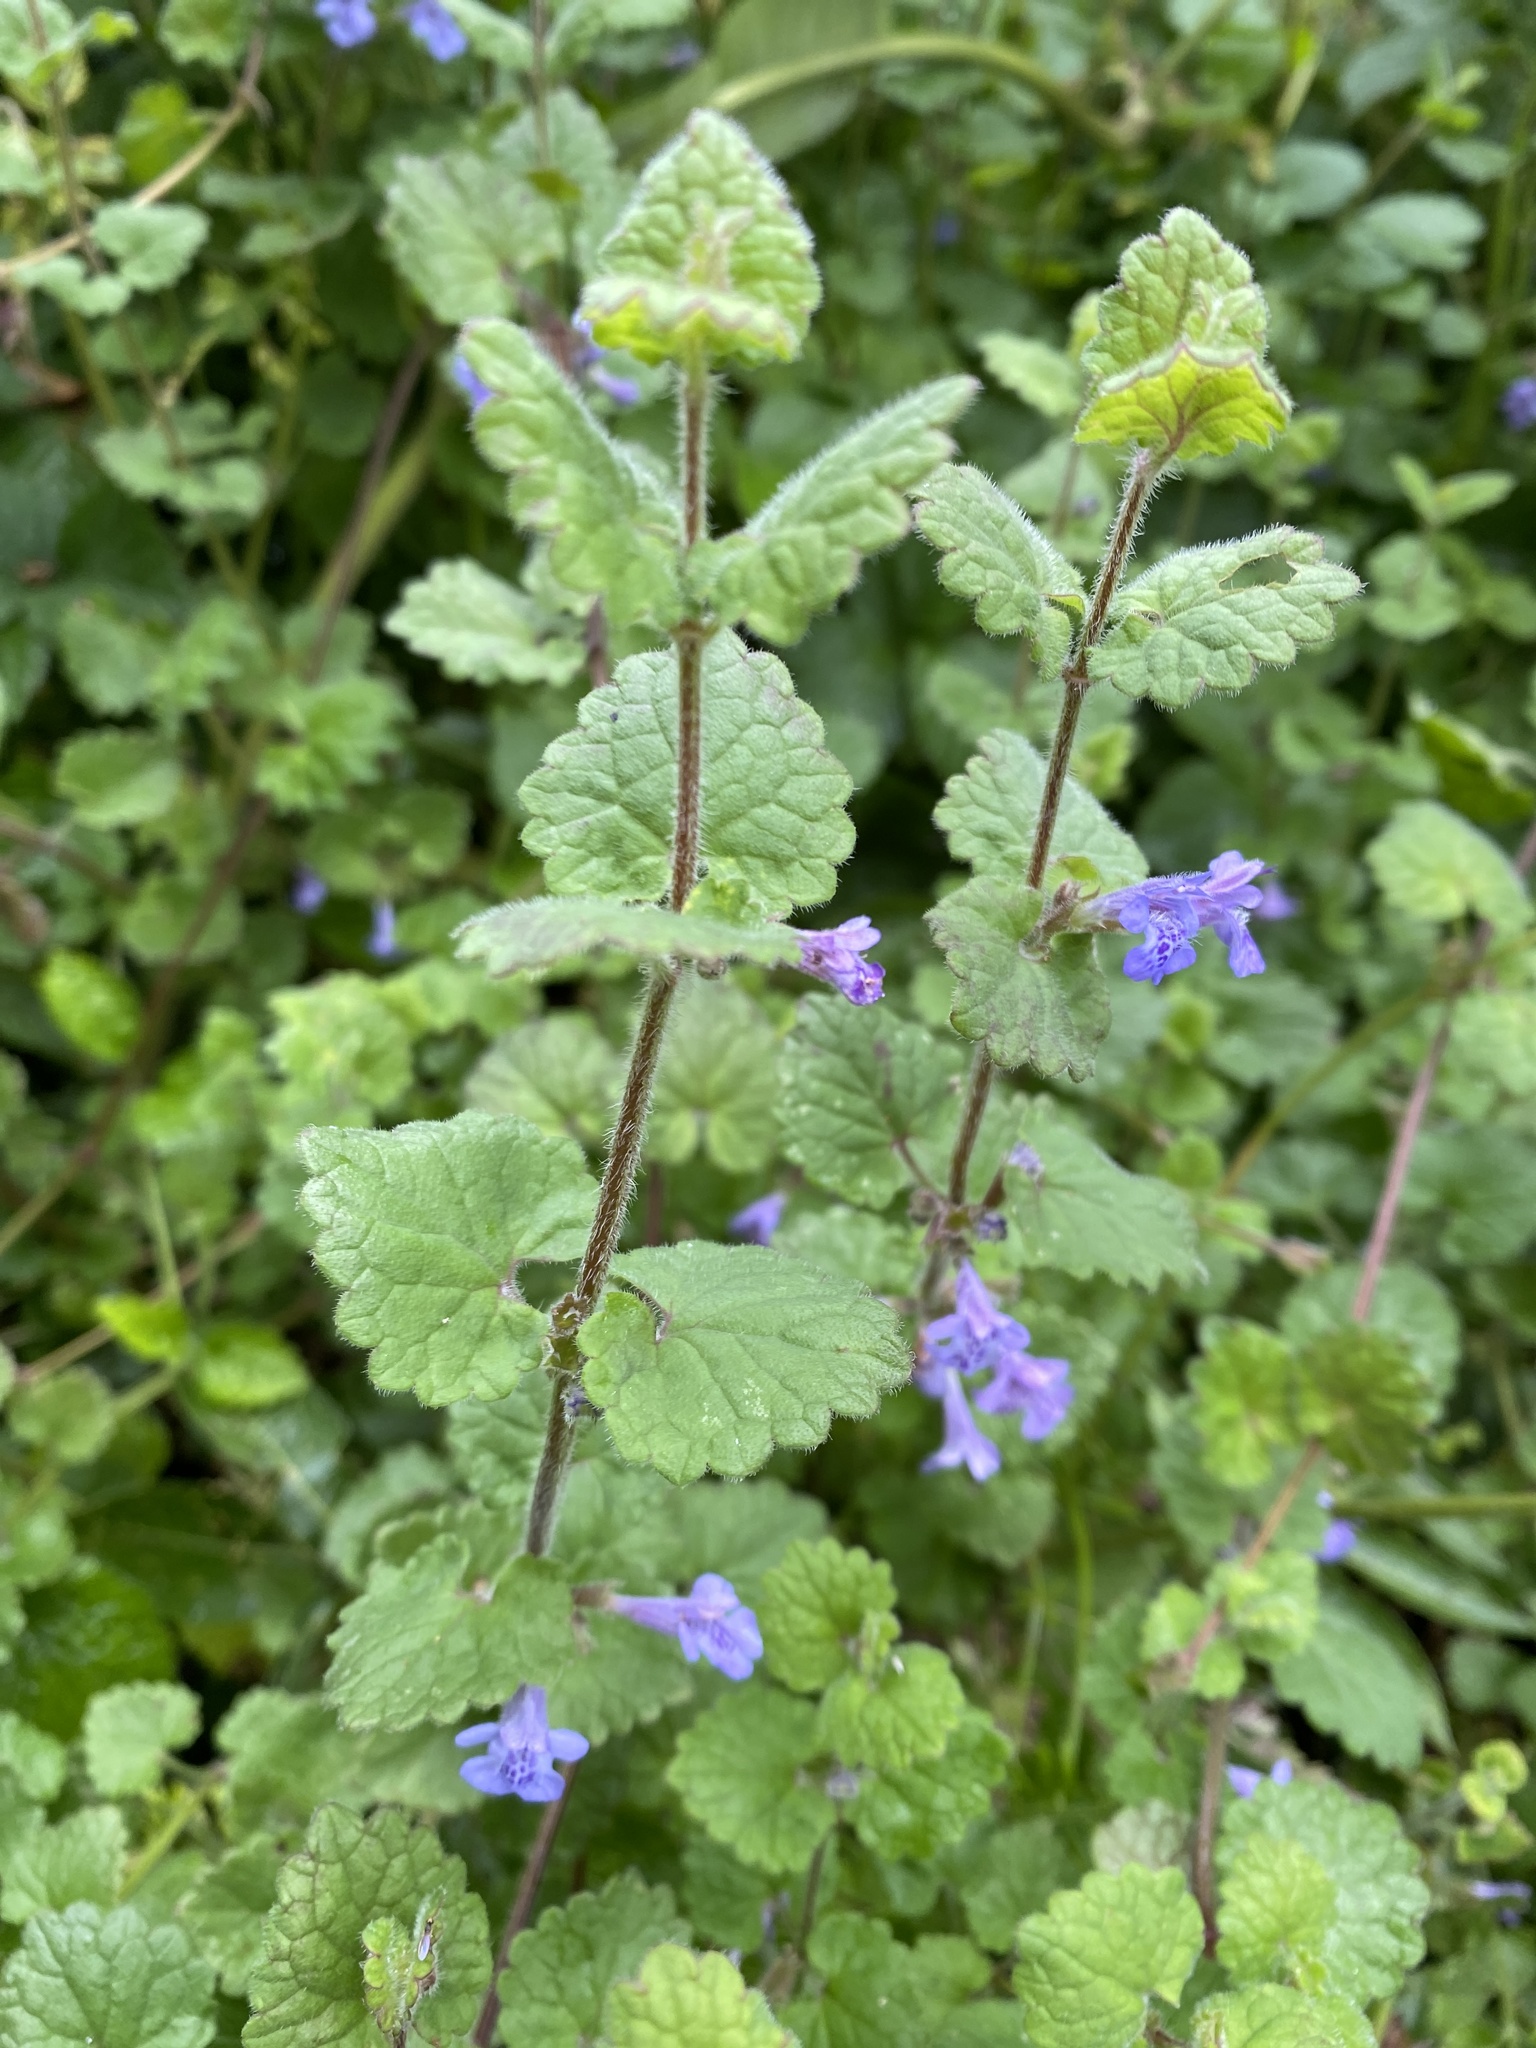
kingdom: Plantae
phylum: Tracheophyta
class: Magnoliopsida
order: Lamiales
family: Lamiaceae
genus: Glechoma
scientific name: Glechoma hederacea
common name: Ground ivy
